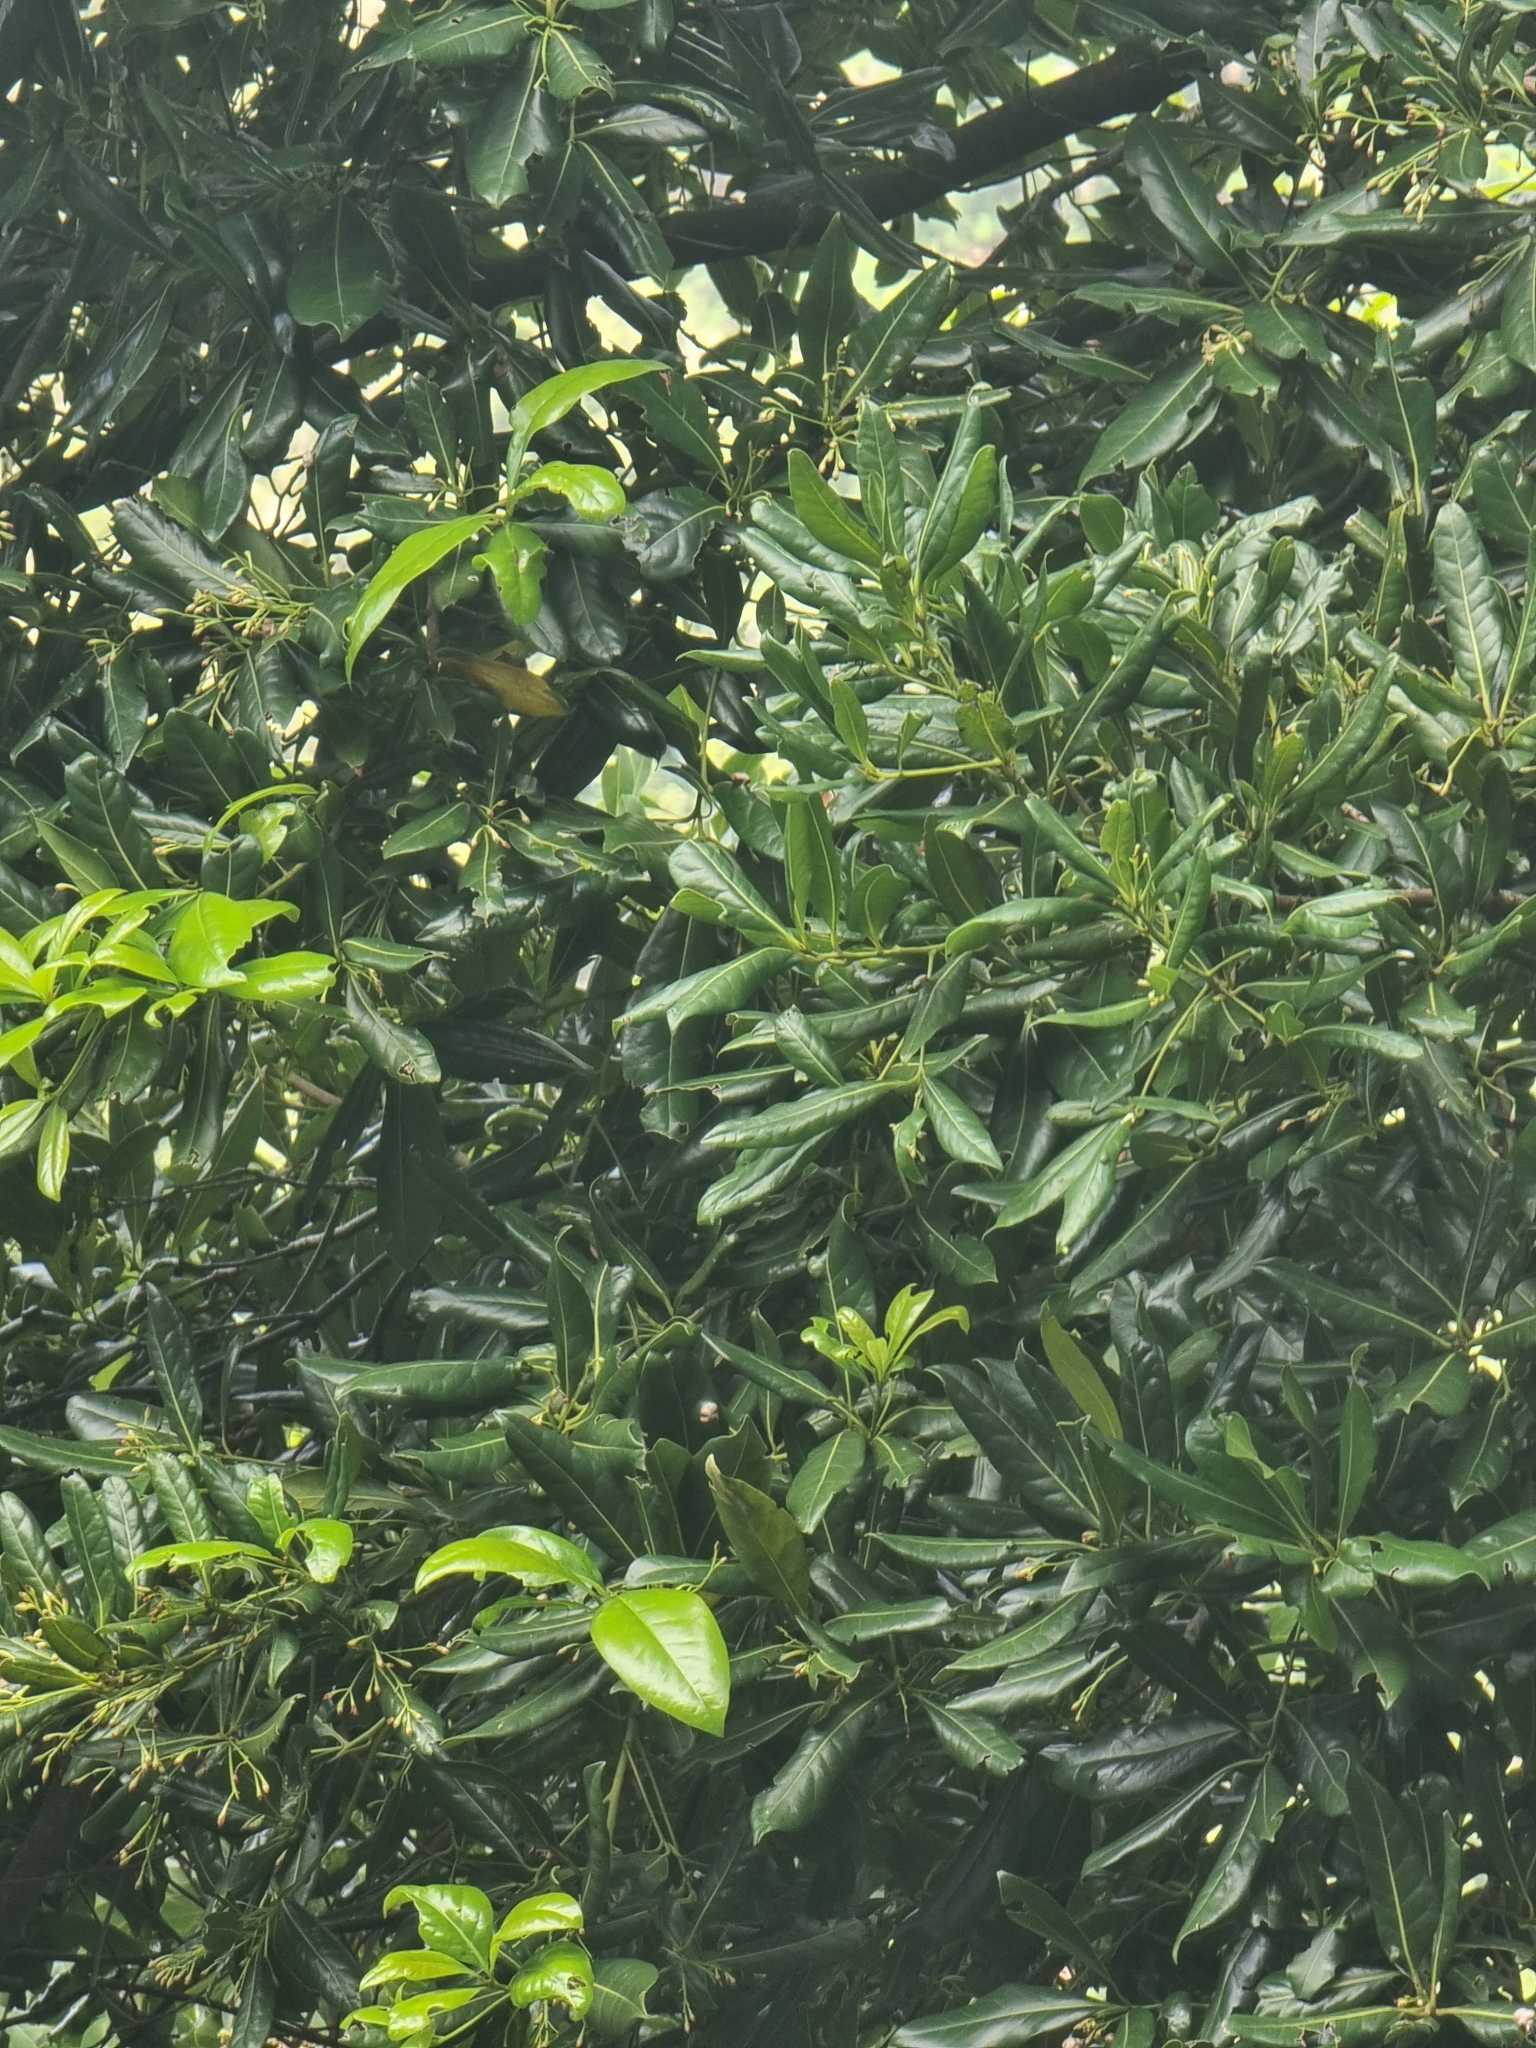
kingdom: Plantae
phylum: Tracheophyta
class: Magnoliopsida
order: Laurales
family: Lauraceae
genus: Apollonias
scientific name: Apollonias barbujana
